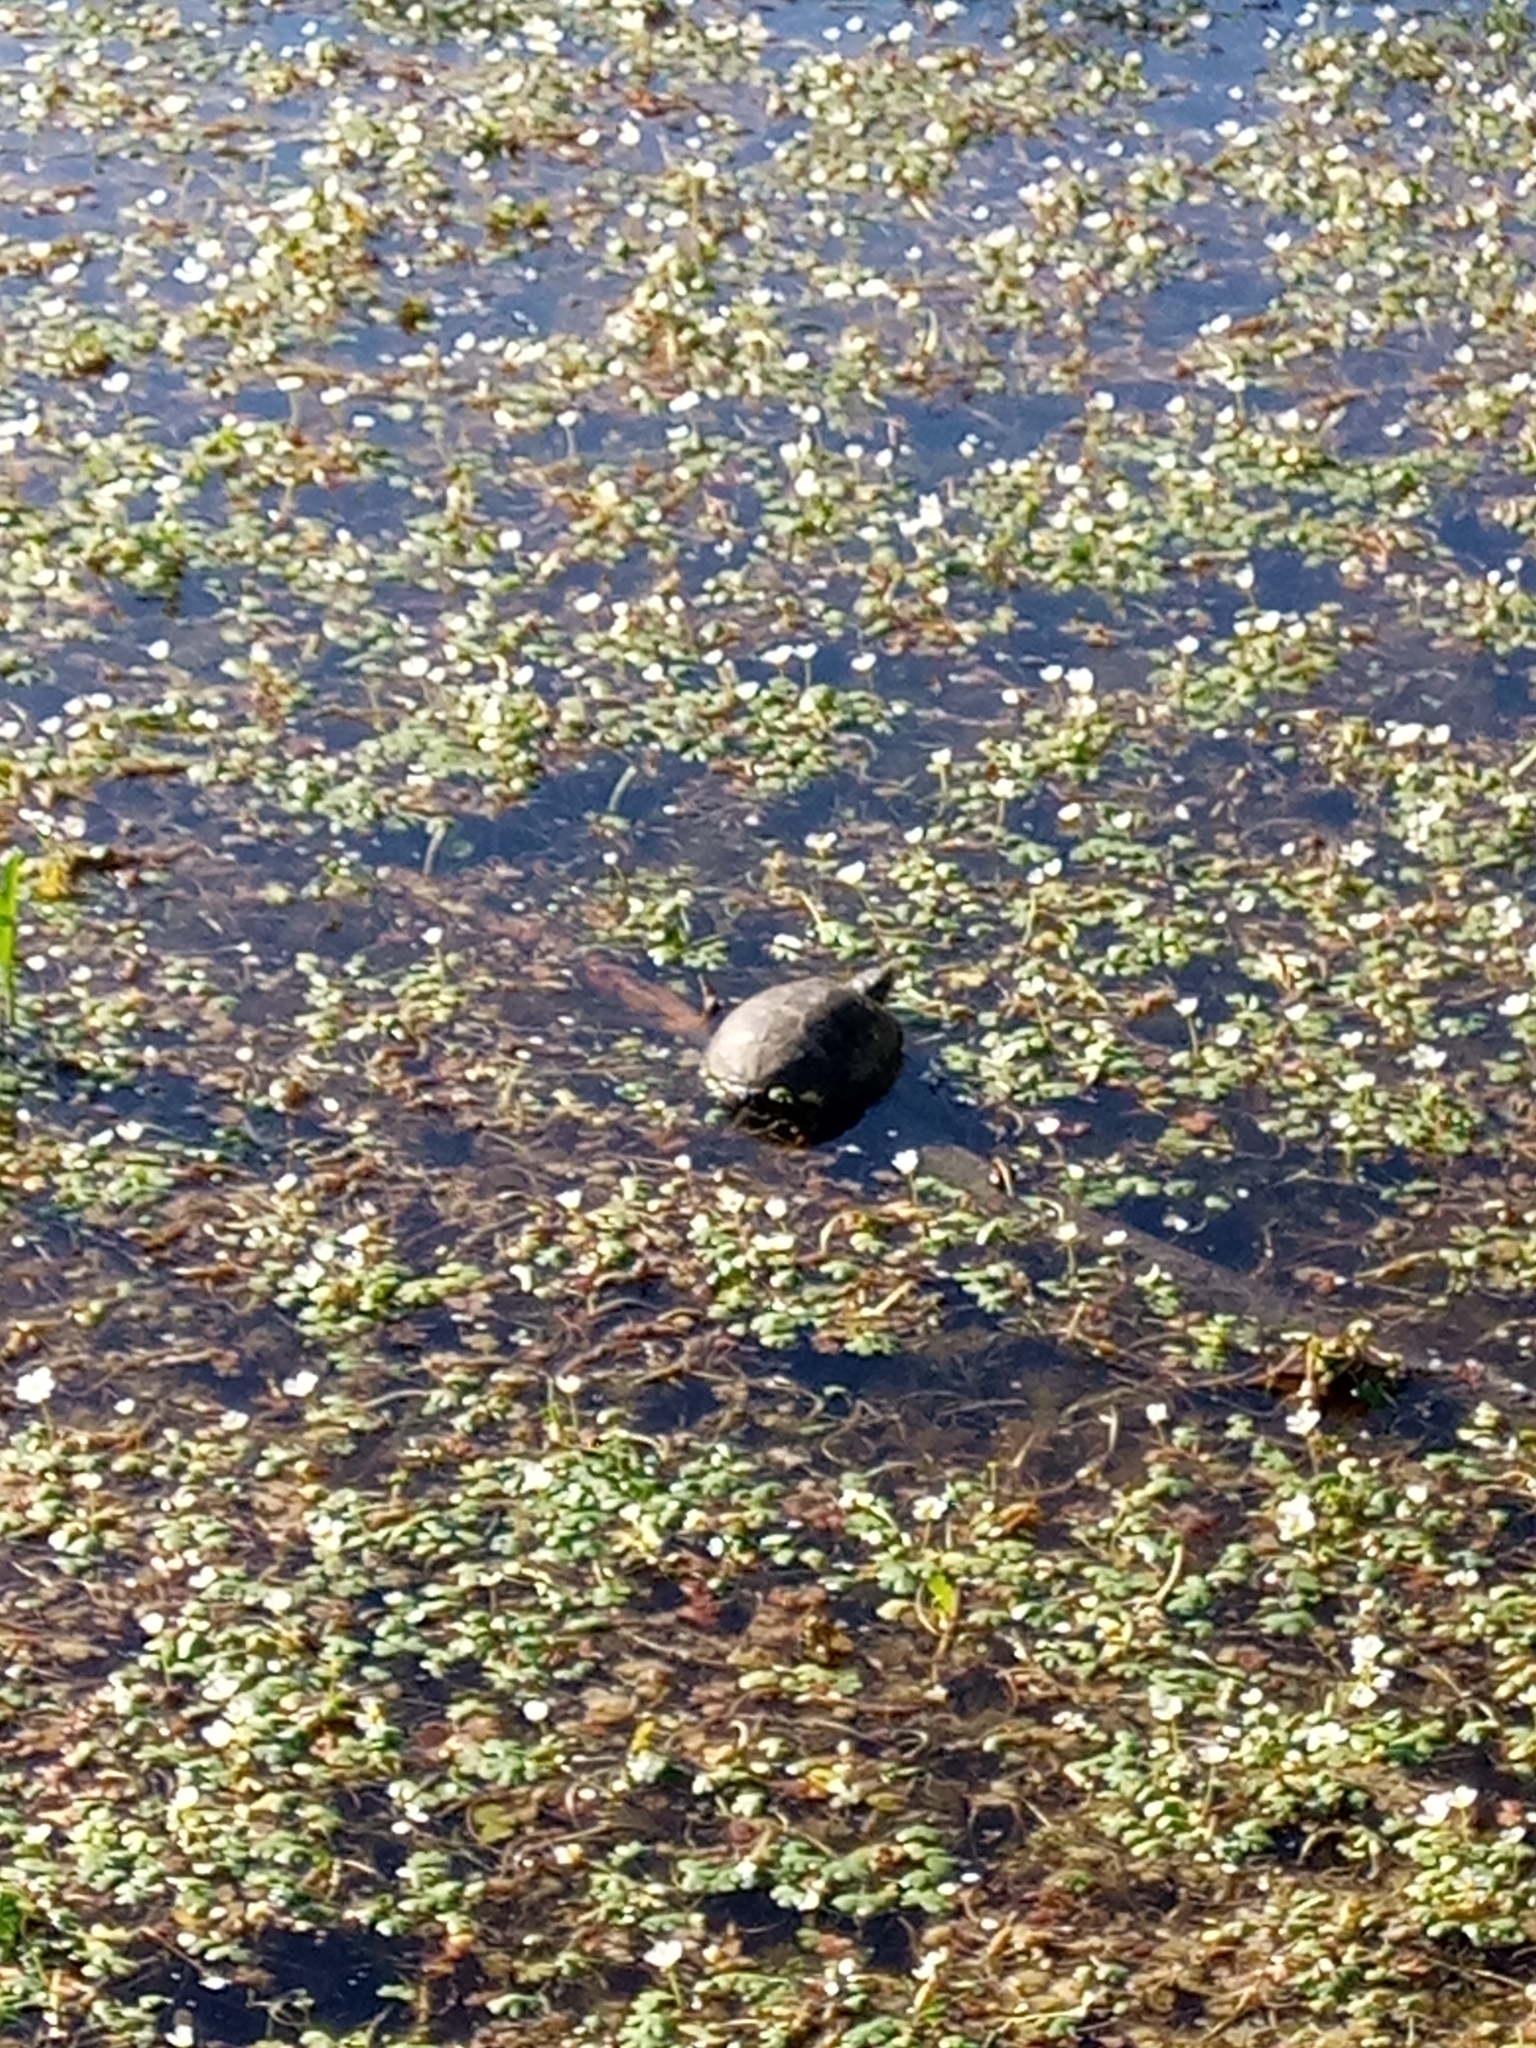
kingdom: Animalia
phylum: Chordata
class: Testudines
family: Emydidae
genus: Emys
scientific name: Emys orbicularis
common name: European pond turtle
